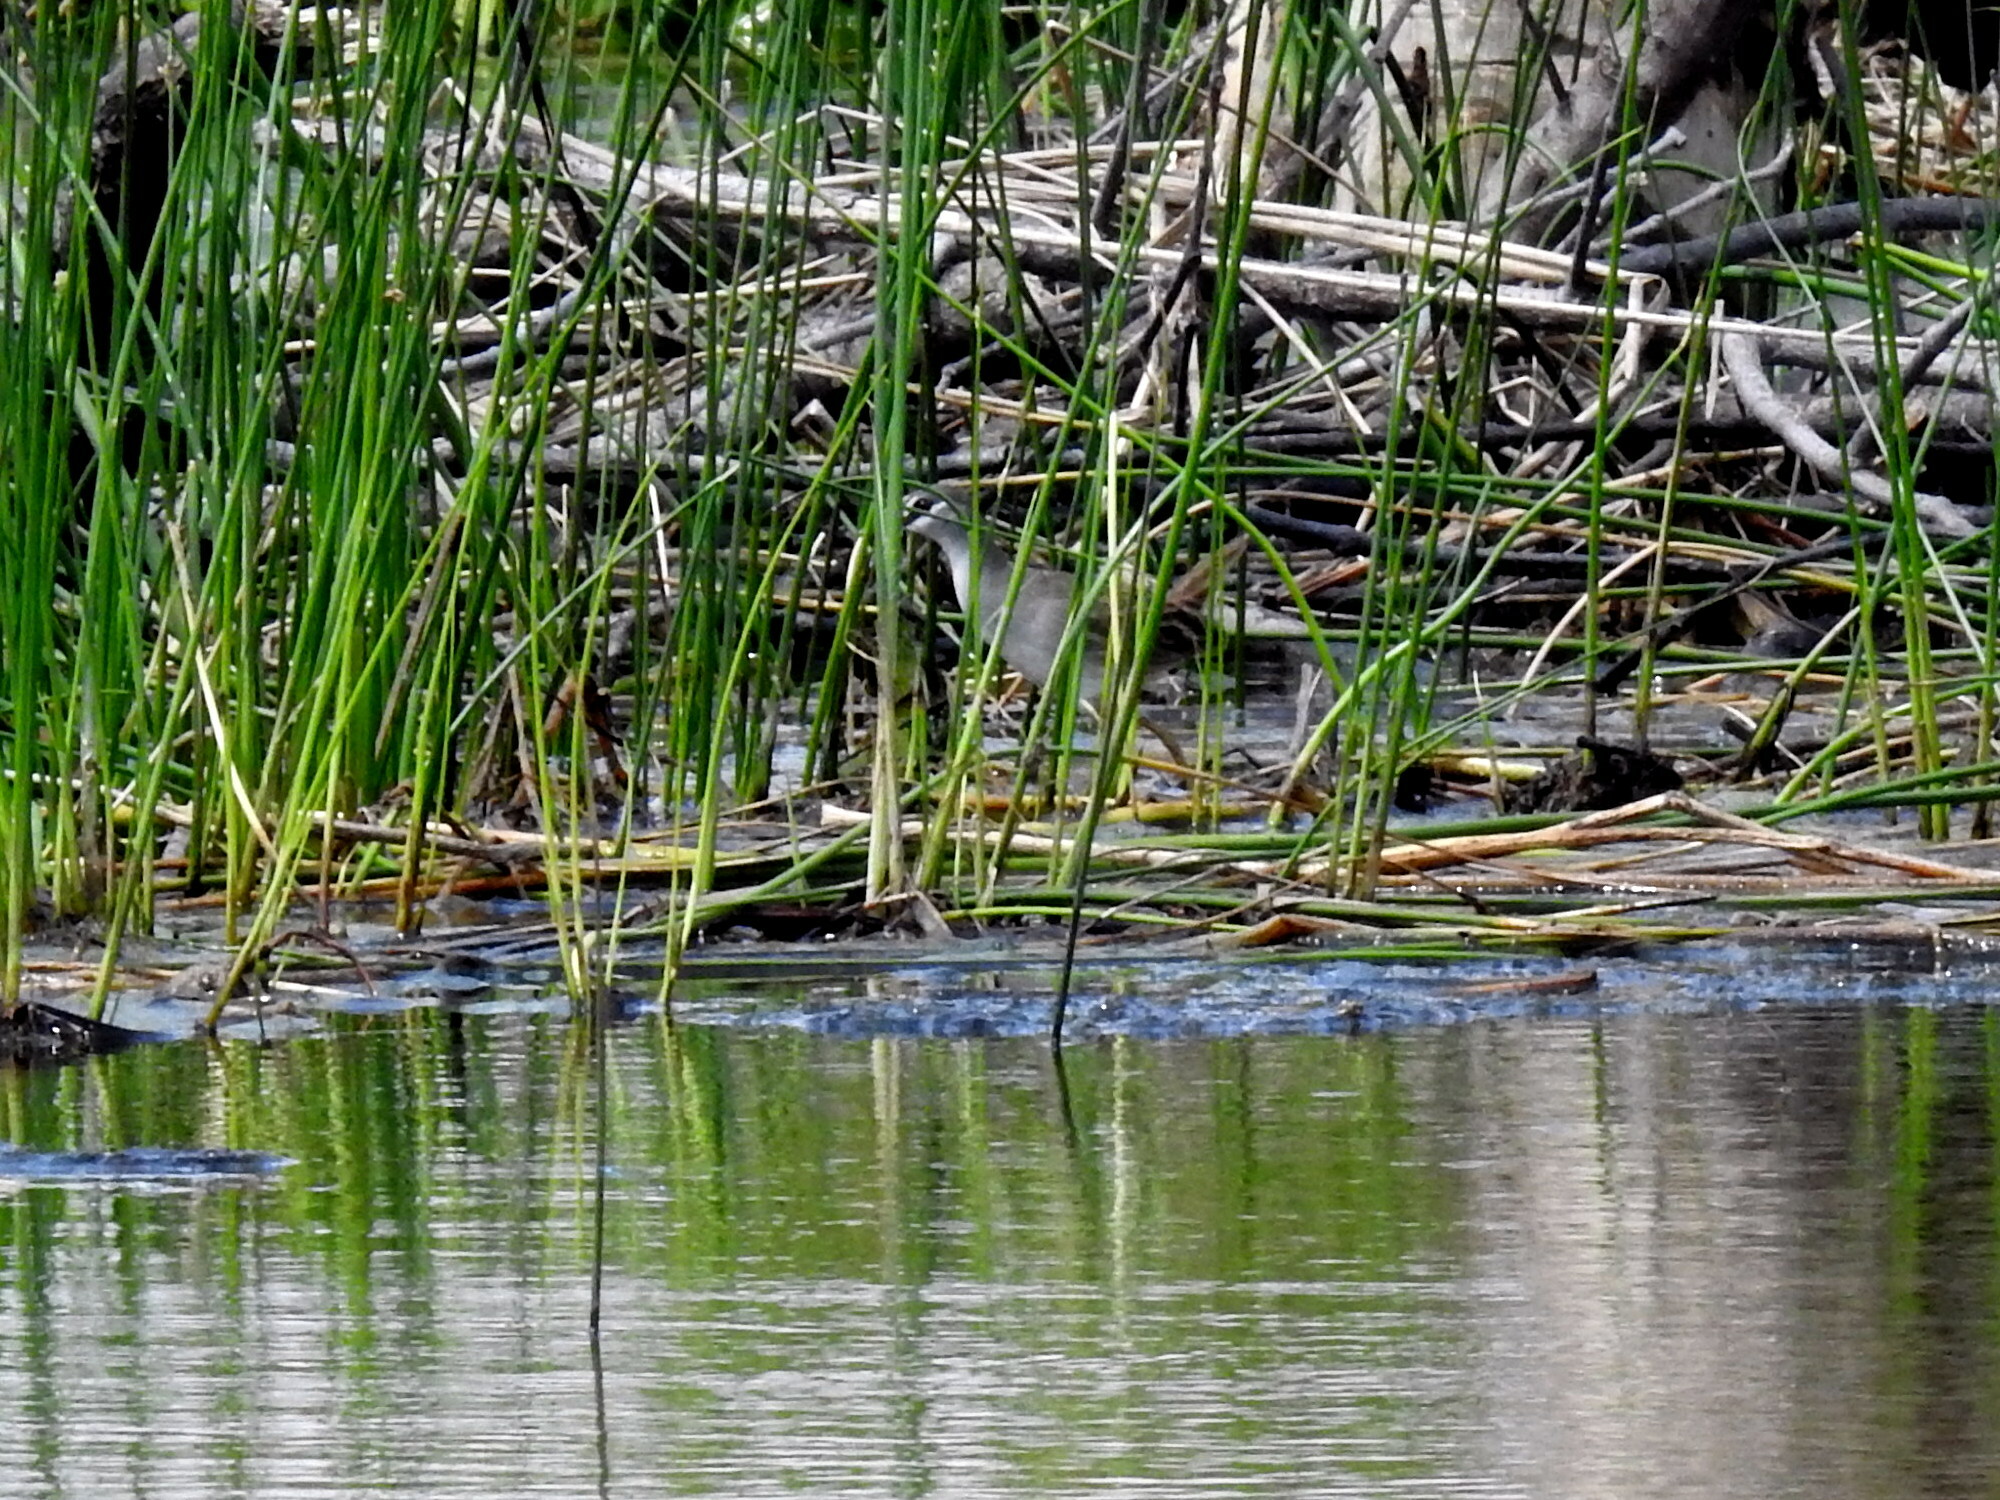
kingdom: Animalia
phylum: Chordata
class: Aves
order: Gruiformes
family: Rallidae
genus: Porzana
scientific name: Porzana cinerea
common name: White-browed crake
